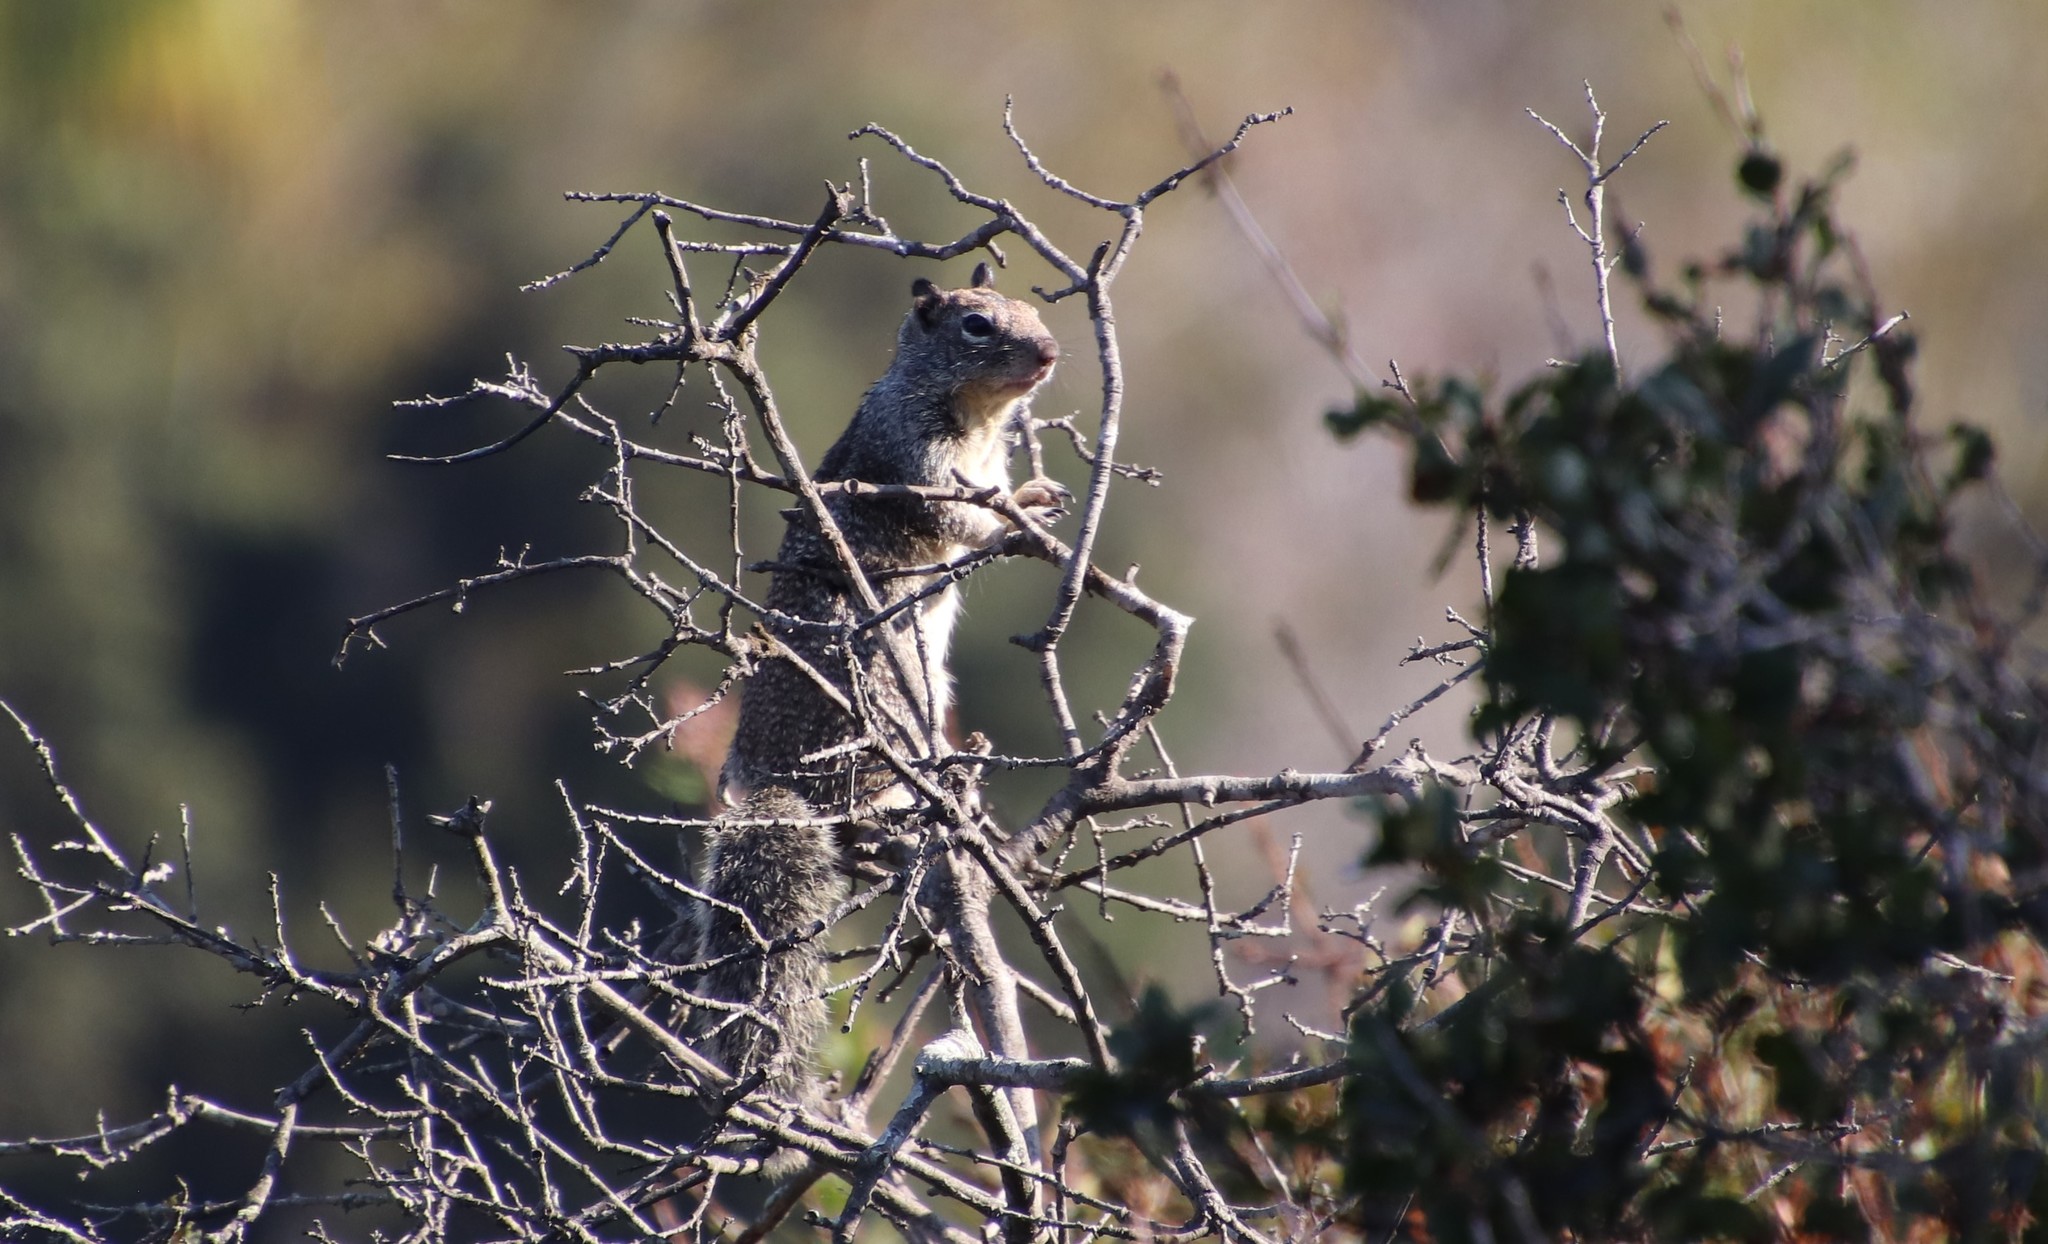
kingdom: Animalia
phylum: Chordata
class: Mammalia
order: Rodentia
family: Sciuridae
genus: Otospermophilus
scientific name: Otospermophilus beecheyi
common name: California ground squirrel
